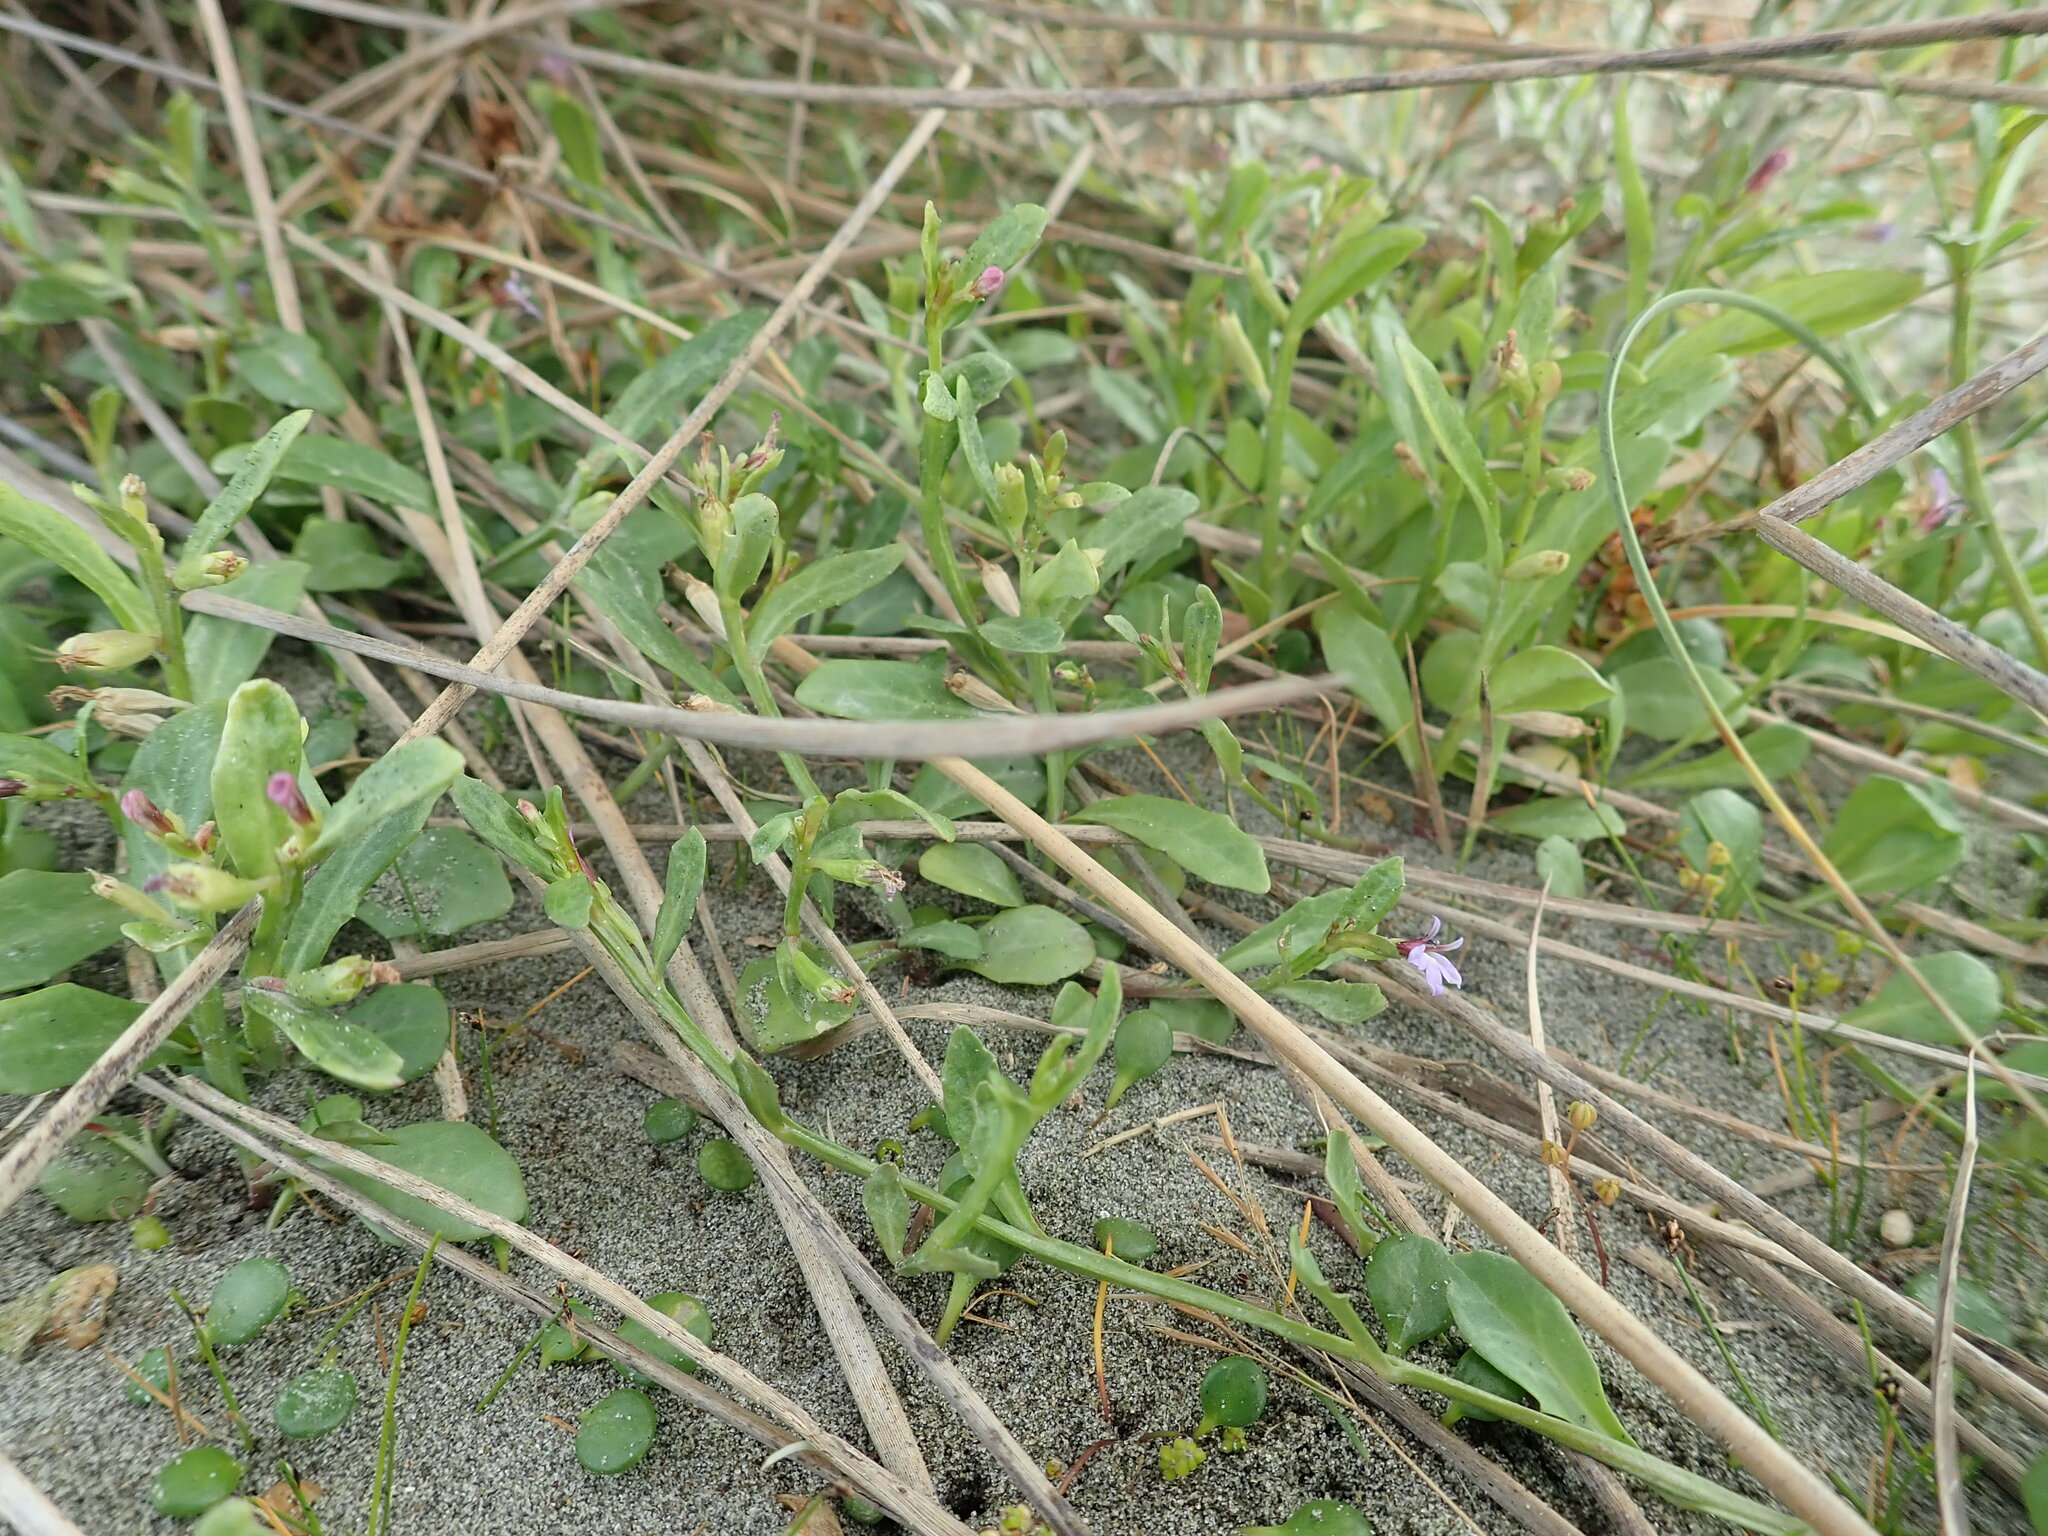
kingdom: Plantae
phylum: Tracheophyta
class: Magnoliopsida
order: Asterales
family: Campanulaceae
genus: Lobelia
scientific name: Lobelia anceps
